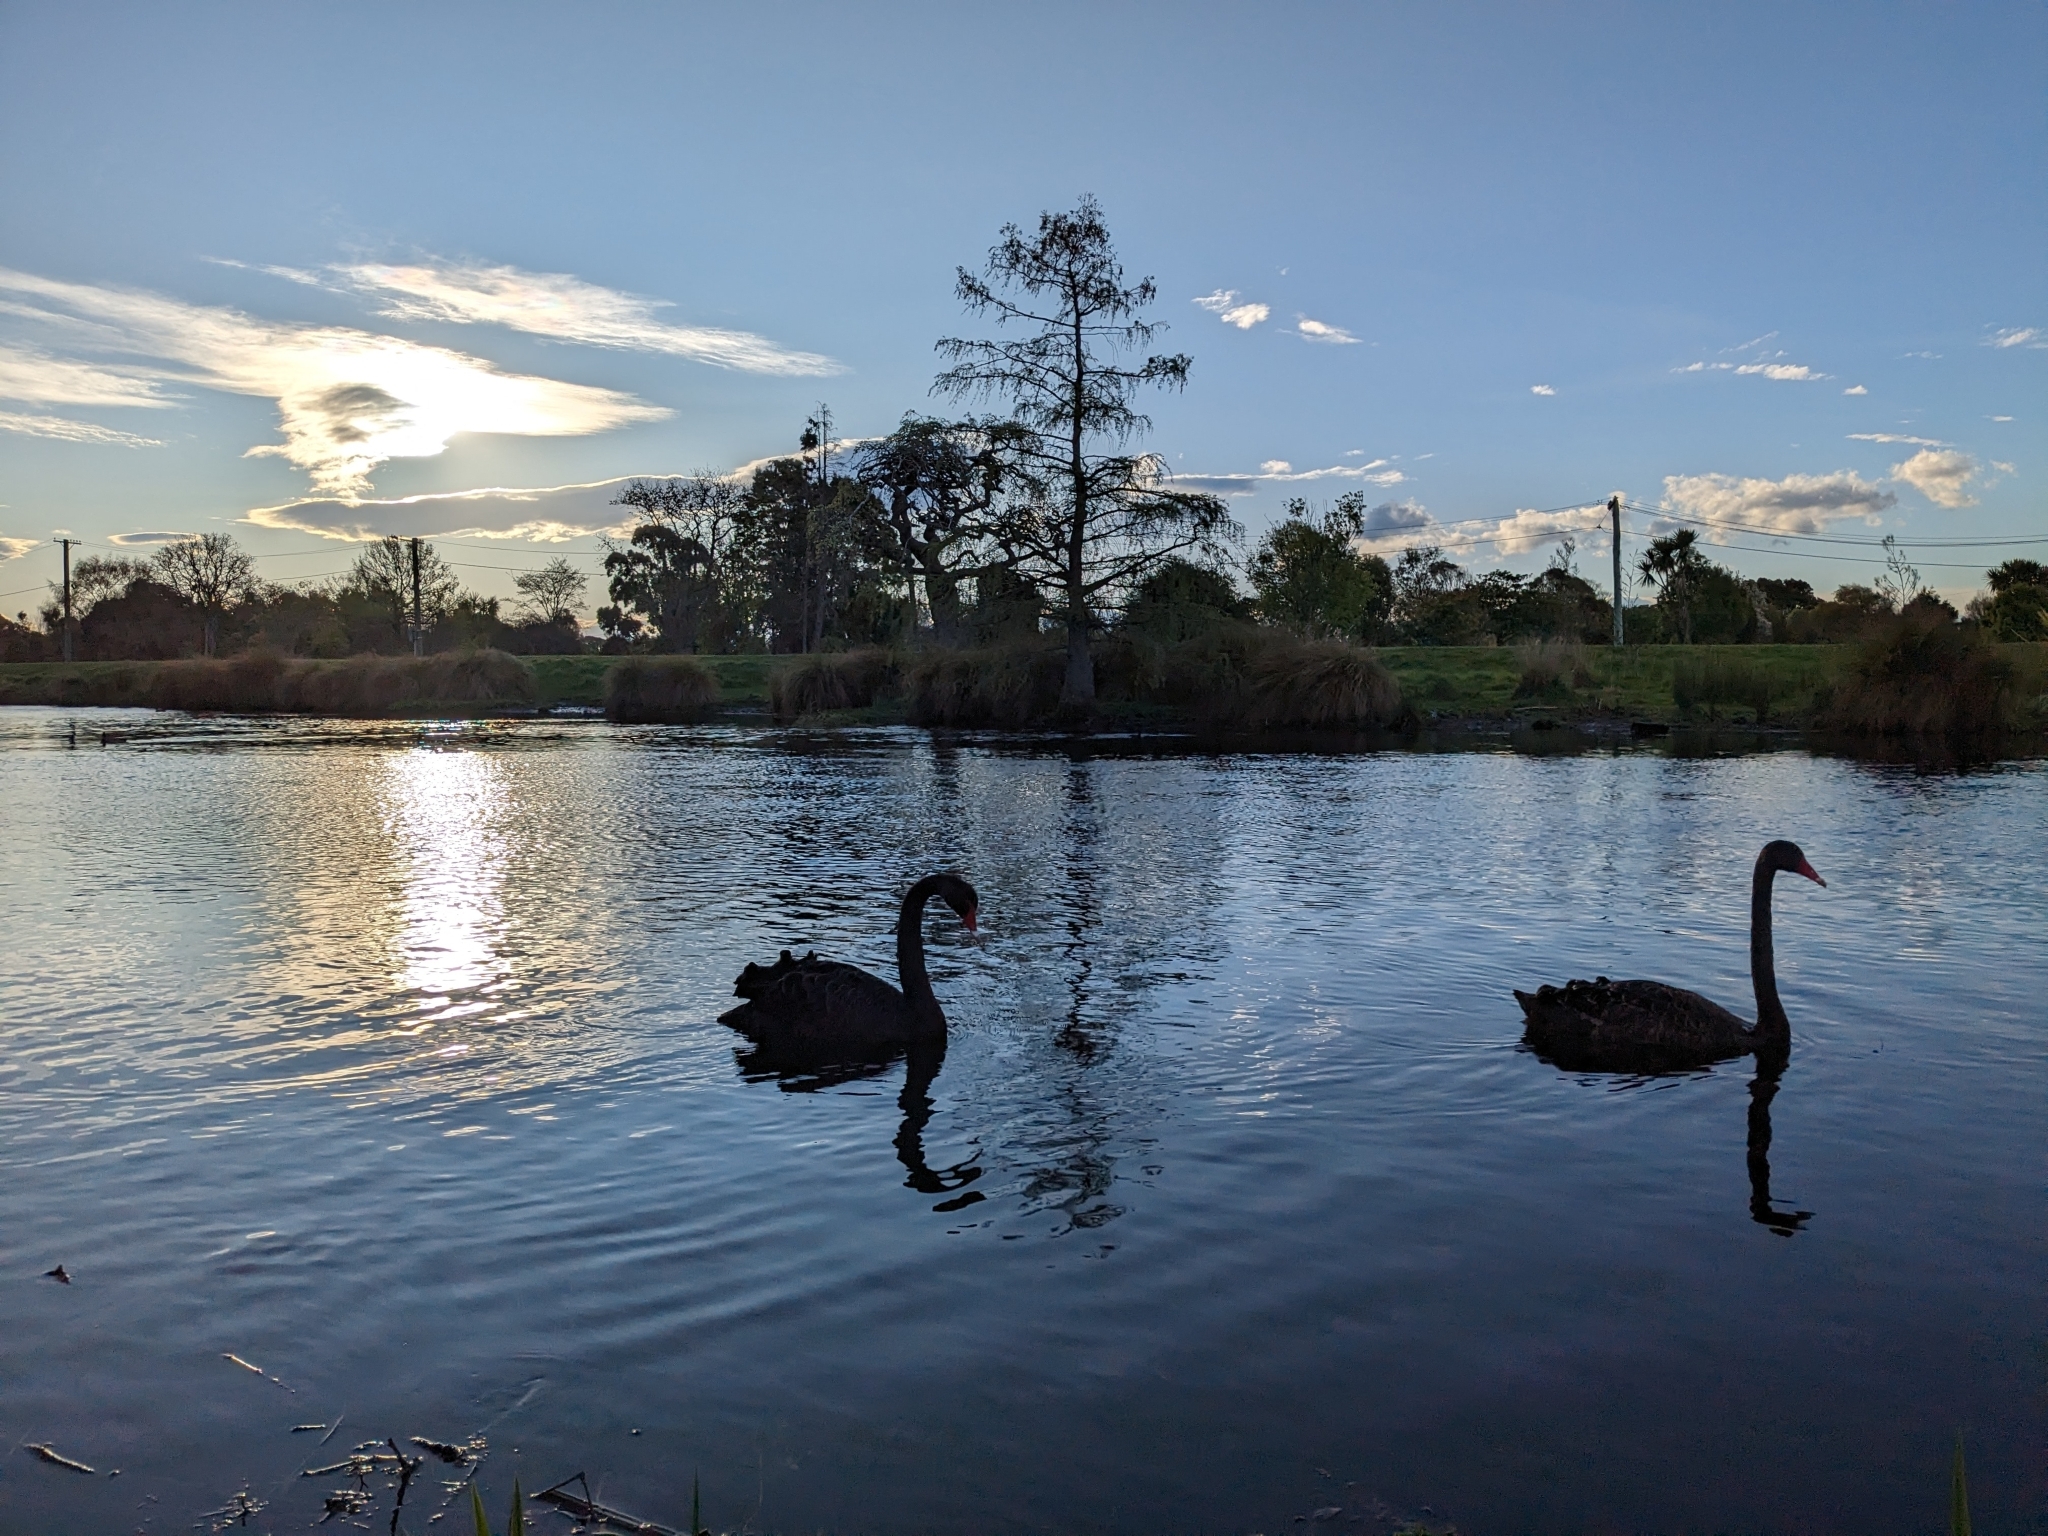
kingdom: Animalia
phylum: Chordata
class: Aves
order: Anseriformes
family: Anatidae
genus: Cygnus
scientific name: Cygnus atratus
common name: Black swan
